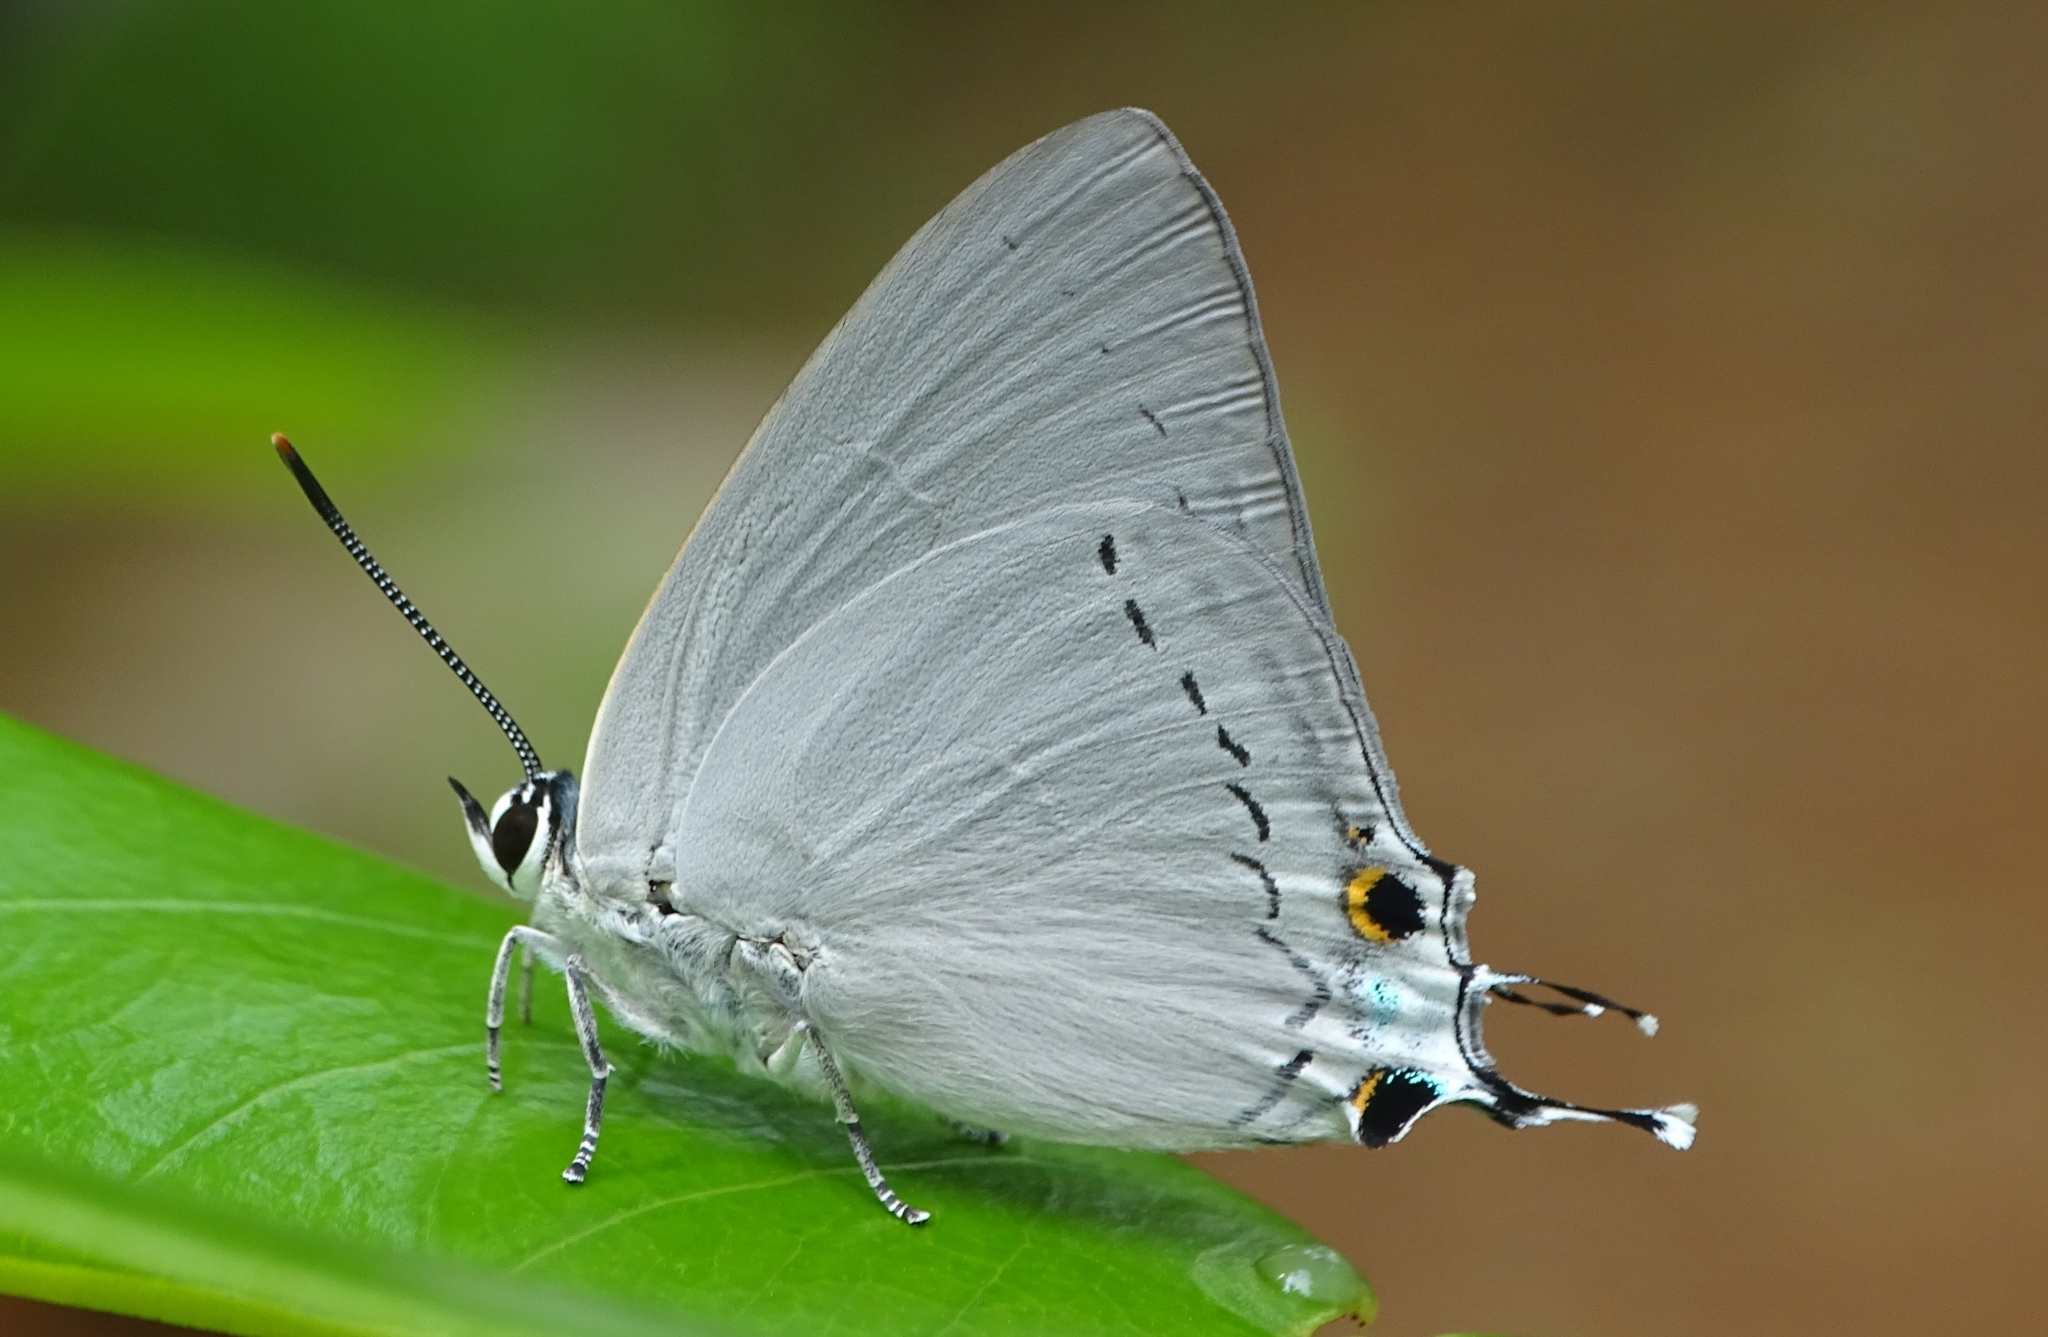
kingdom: Animalia
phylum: Arthropoda
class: Insecta
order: Lepidoptera
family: Lycaenidae
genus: Tajuria
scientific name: Tajuria cippus
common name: Peacock royal
